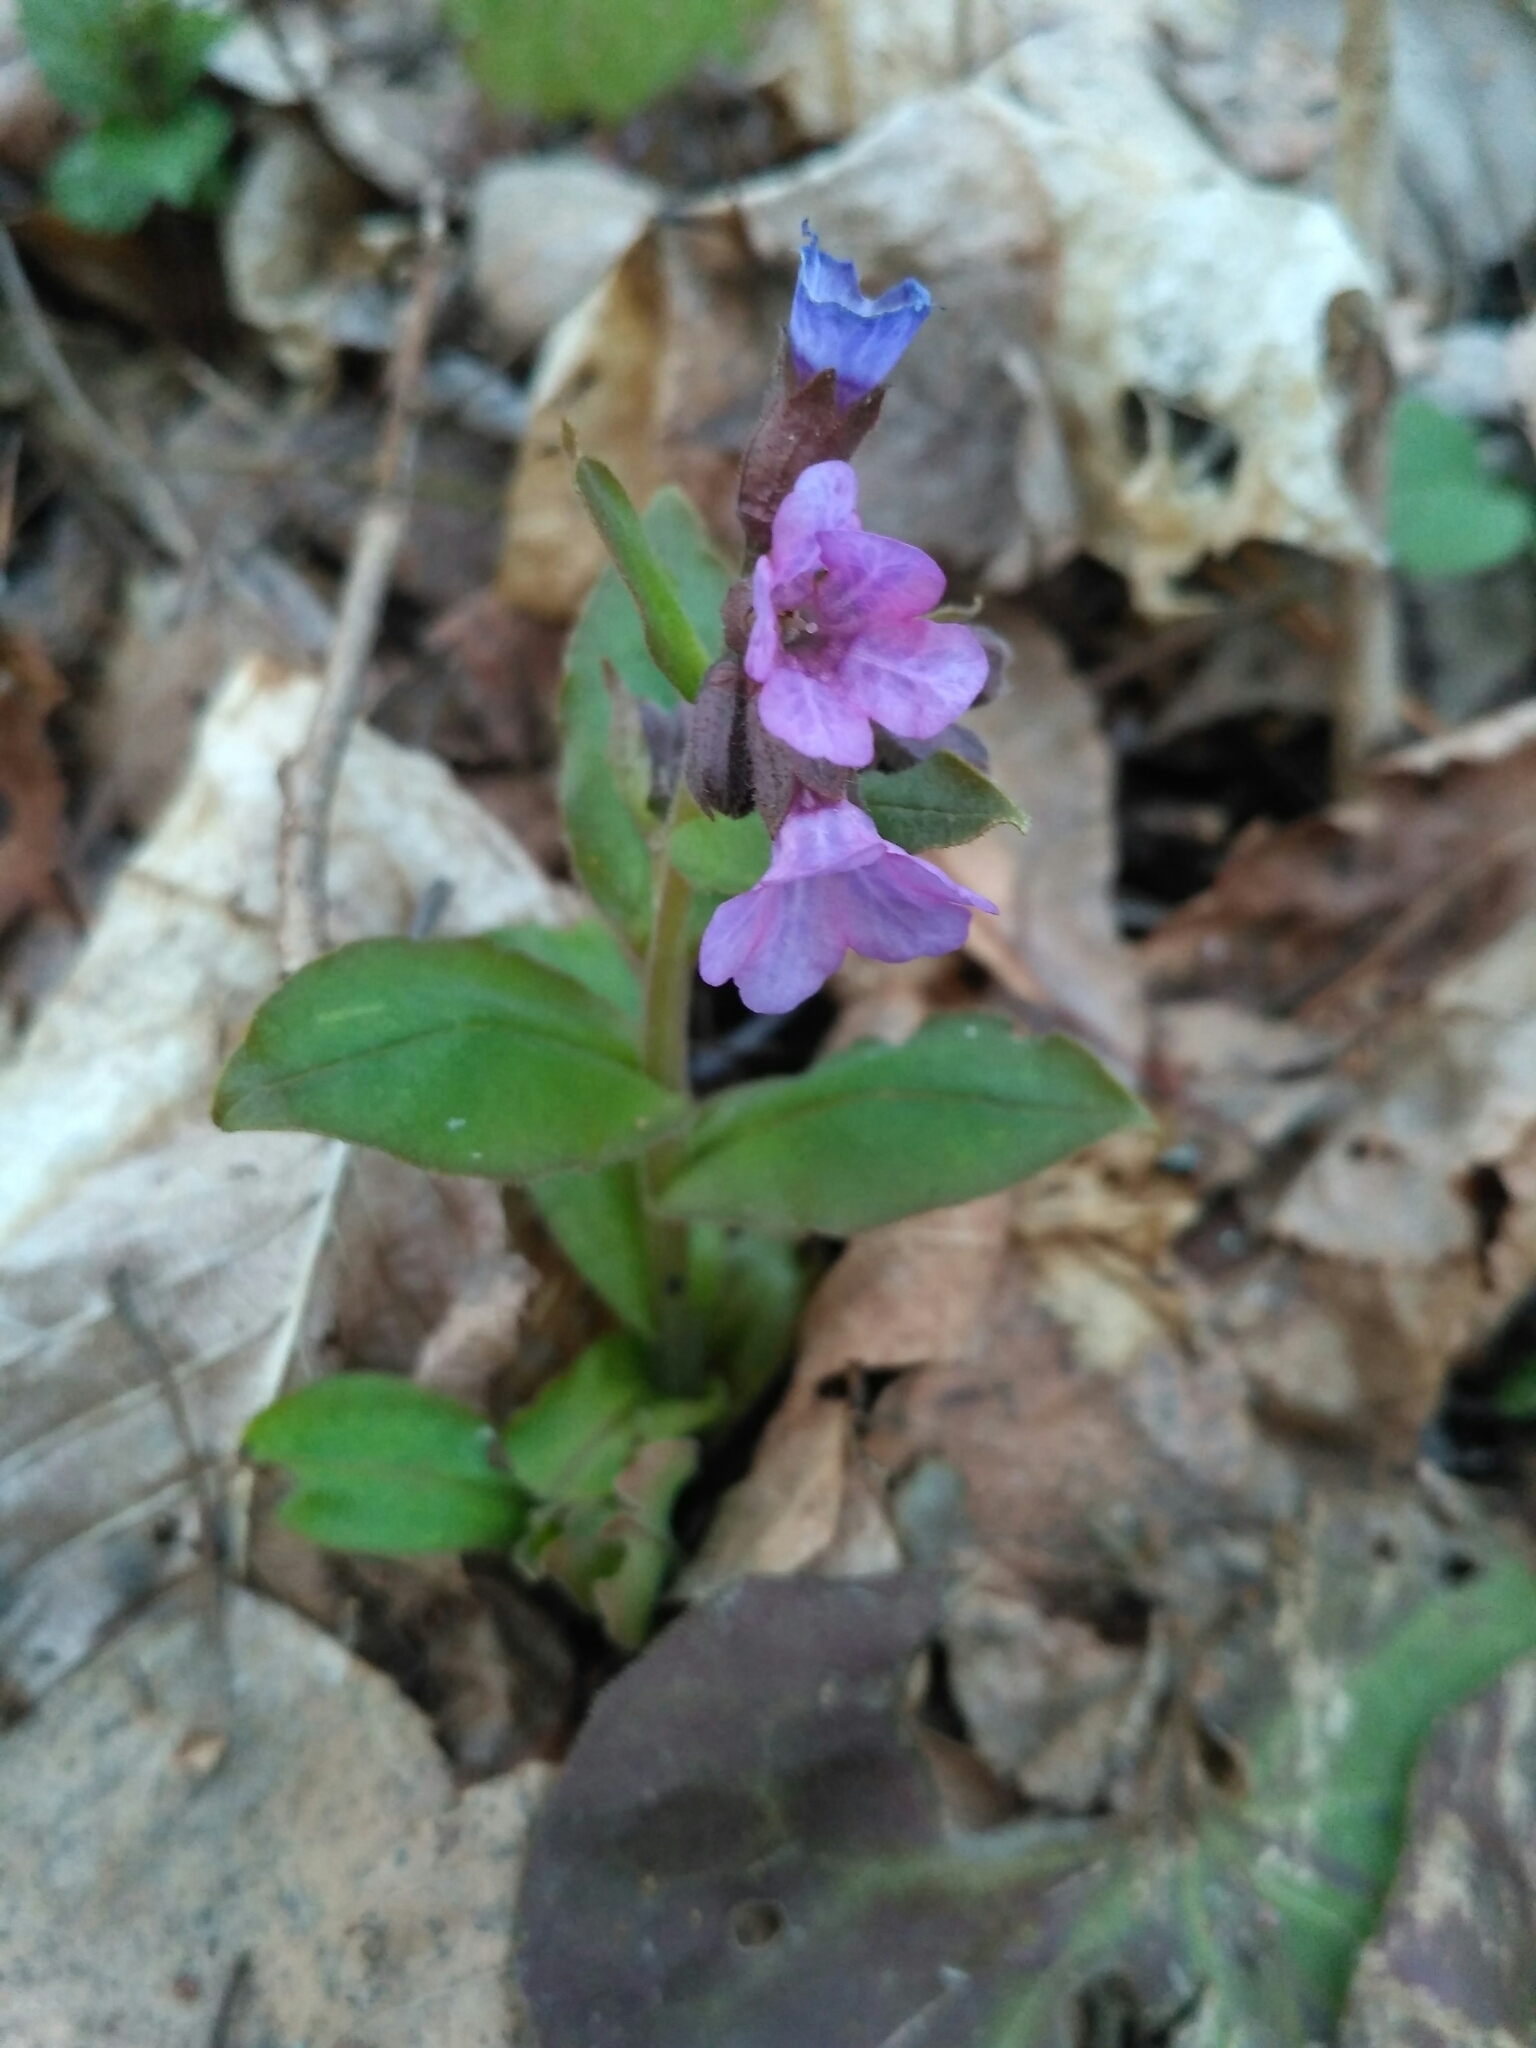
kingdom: Plantae
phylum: Tracheophyta
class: Magnoliopsida
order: Boraginales
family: Boraginaceae
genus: Pulmonaria
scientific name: Pulmonaria obscura
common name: Suffolk lungwort
